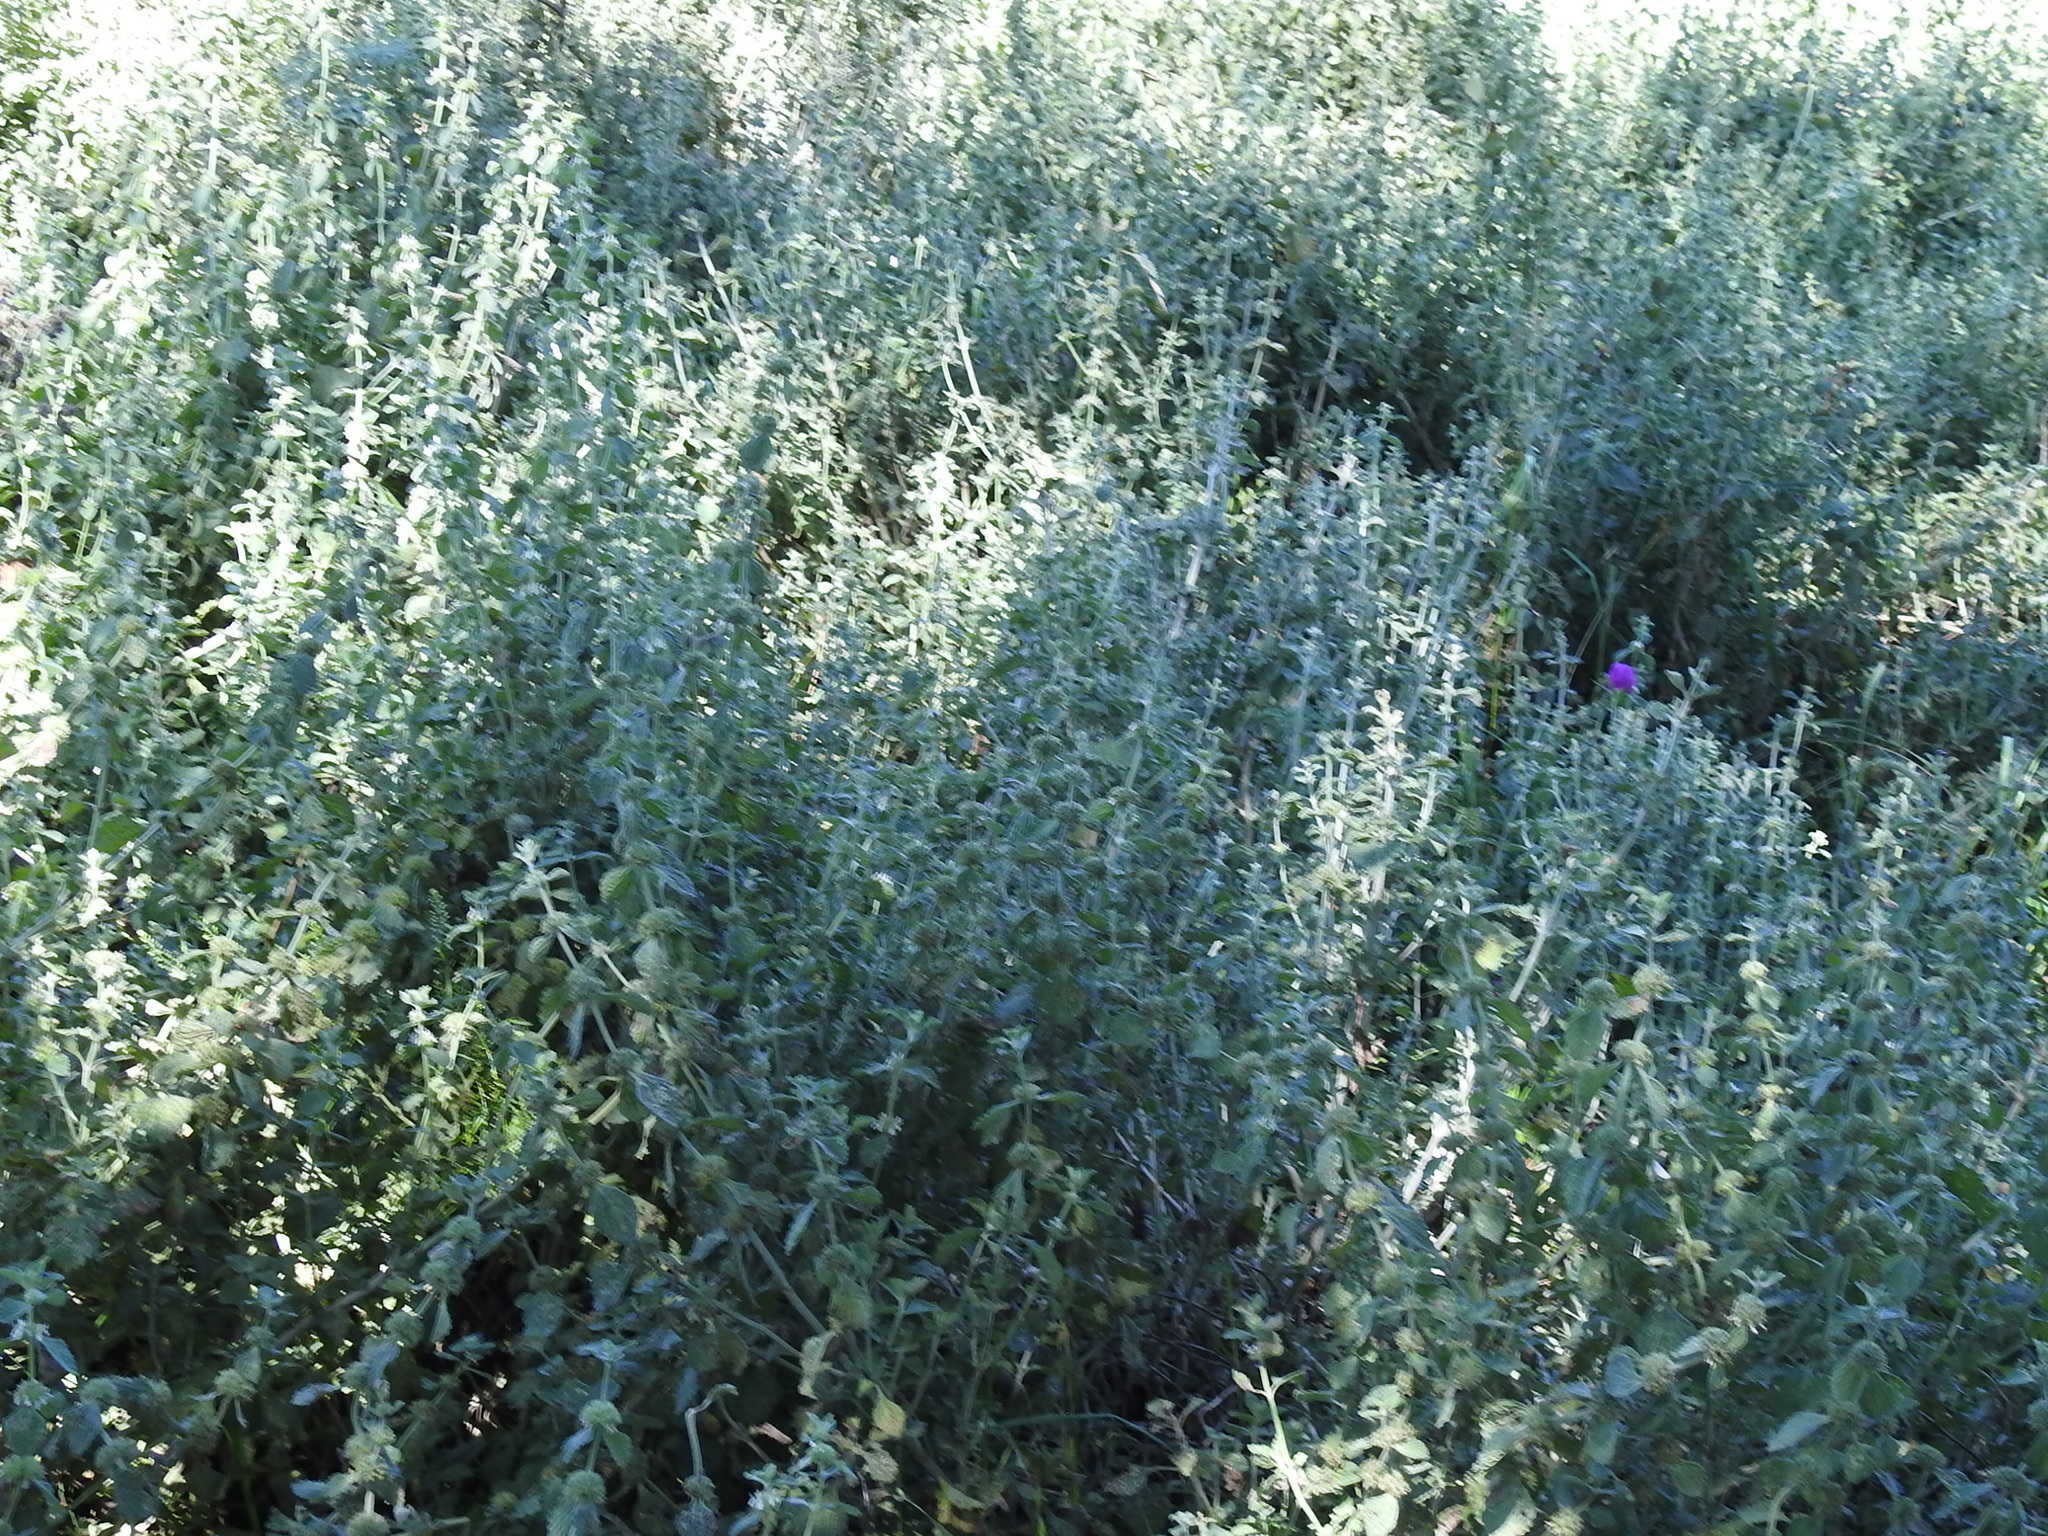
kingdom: Plantae
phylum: Tracheophyta
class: Magnoliopsida
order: Lamiales
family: Lamiaceae
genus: Marrubium
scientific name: Marrubium vulgare
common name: Horehound
